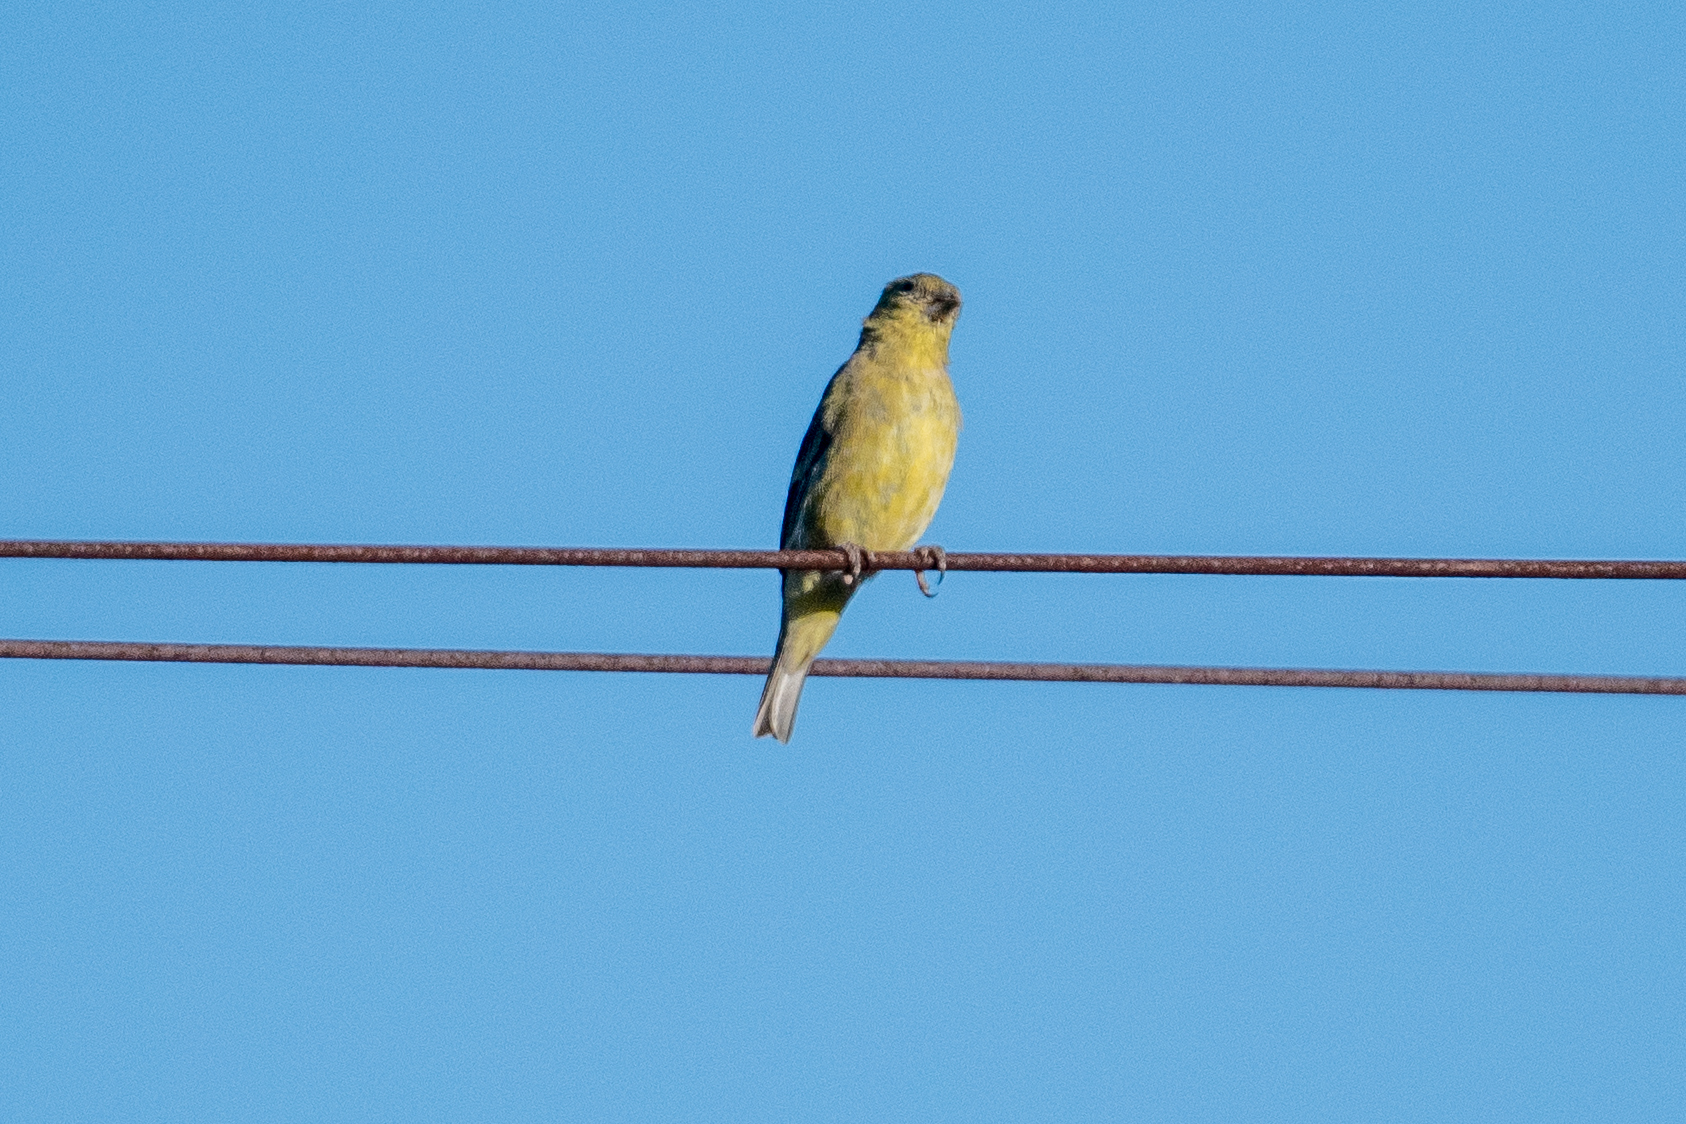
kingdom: Animalia
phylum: Chordata
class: Aves
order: Passeriformes
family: Fringillidae
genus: Spinus
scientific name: Spinus psaltria
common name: Lesser goldfinch
